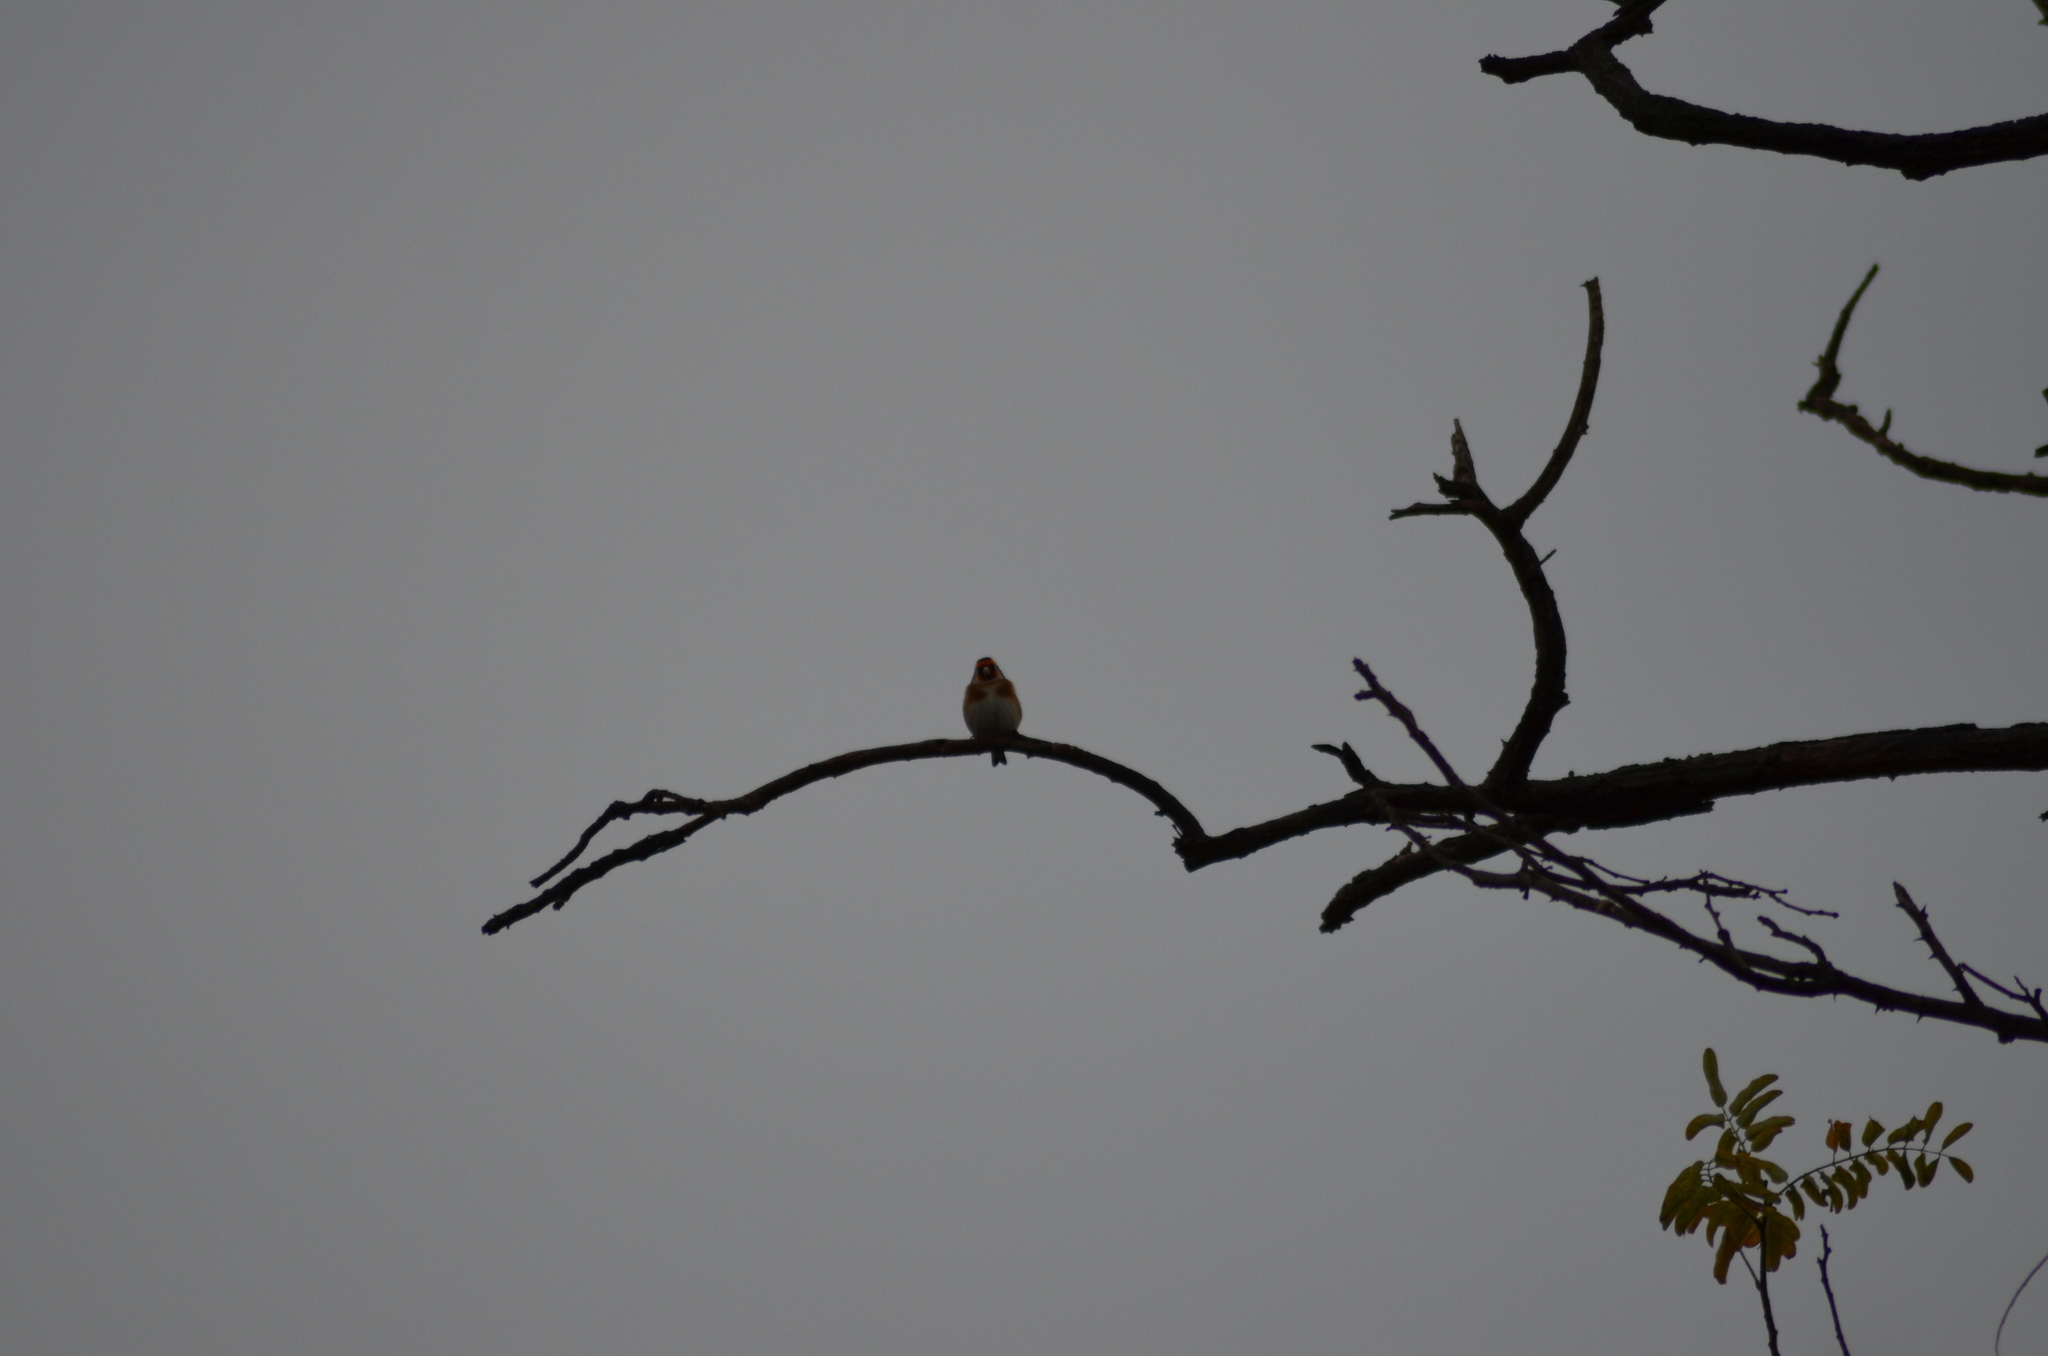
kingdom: Animalia
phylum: Chordata
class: Aves
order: Passeriformes
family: Fringillidae
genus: Carduelis
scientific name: Carduelis carduelis
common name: European goldfinch
